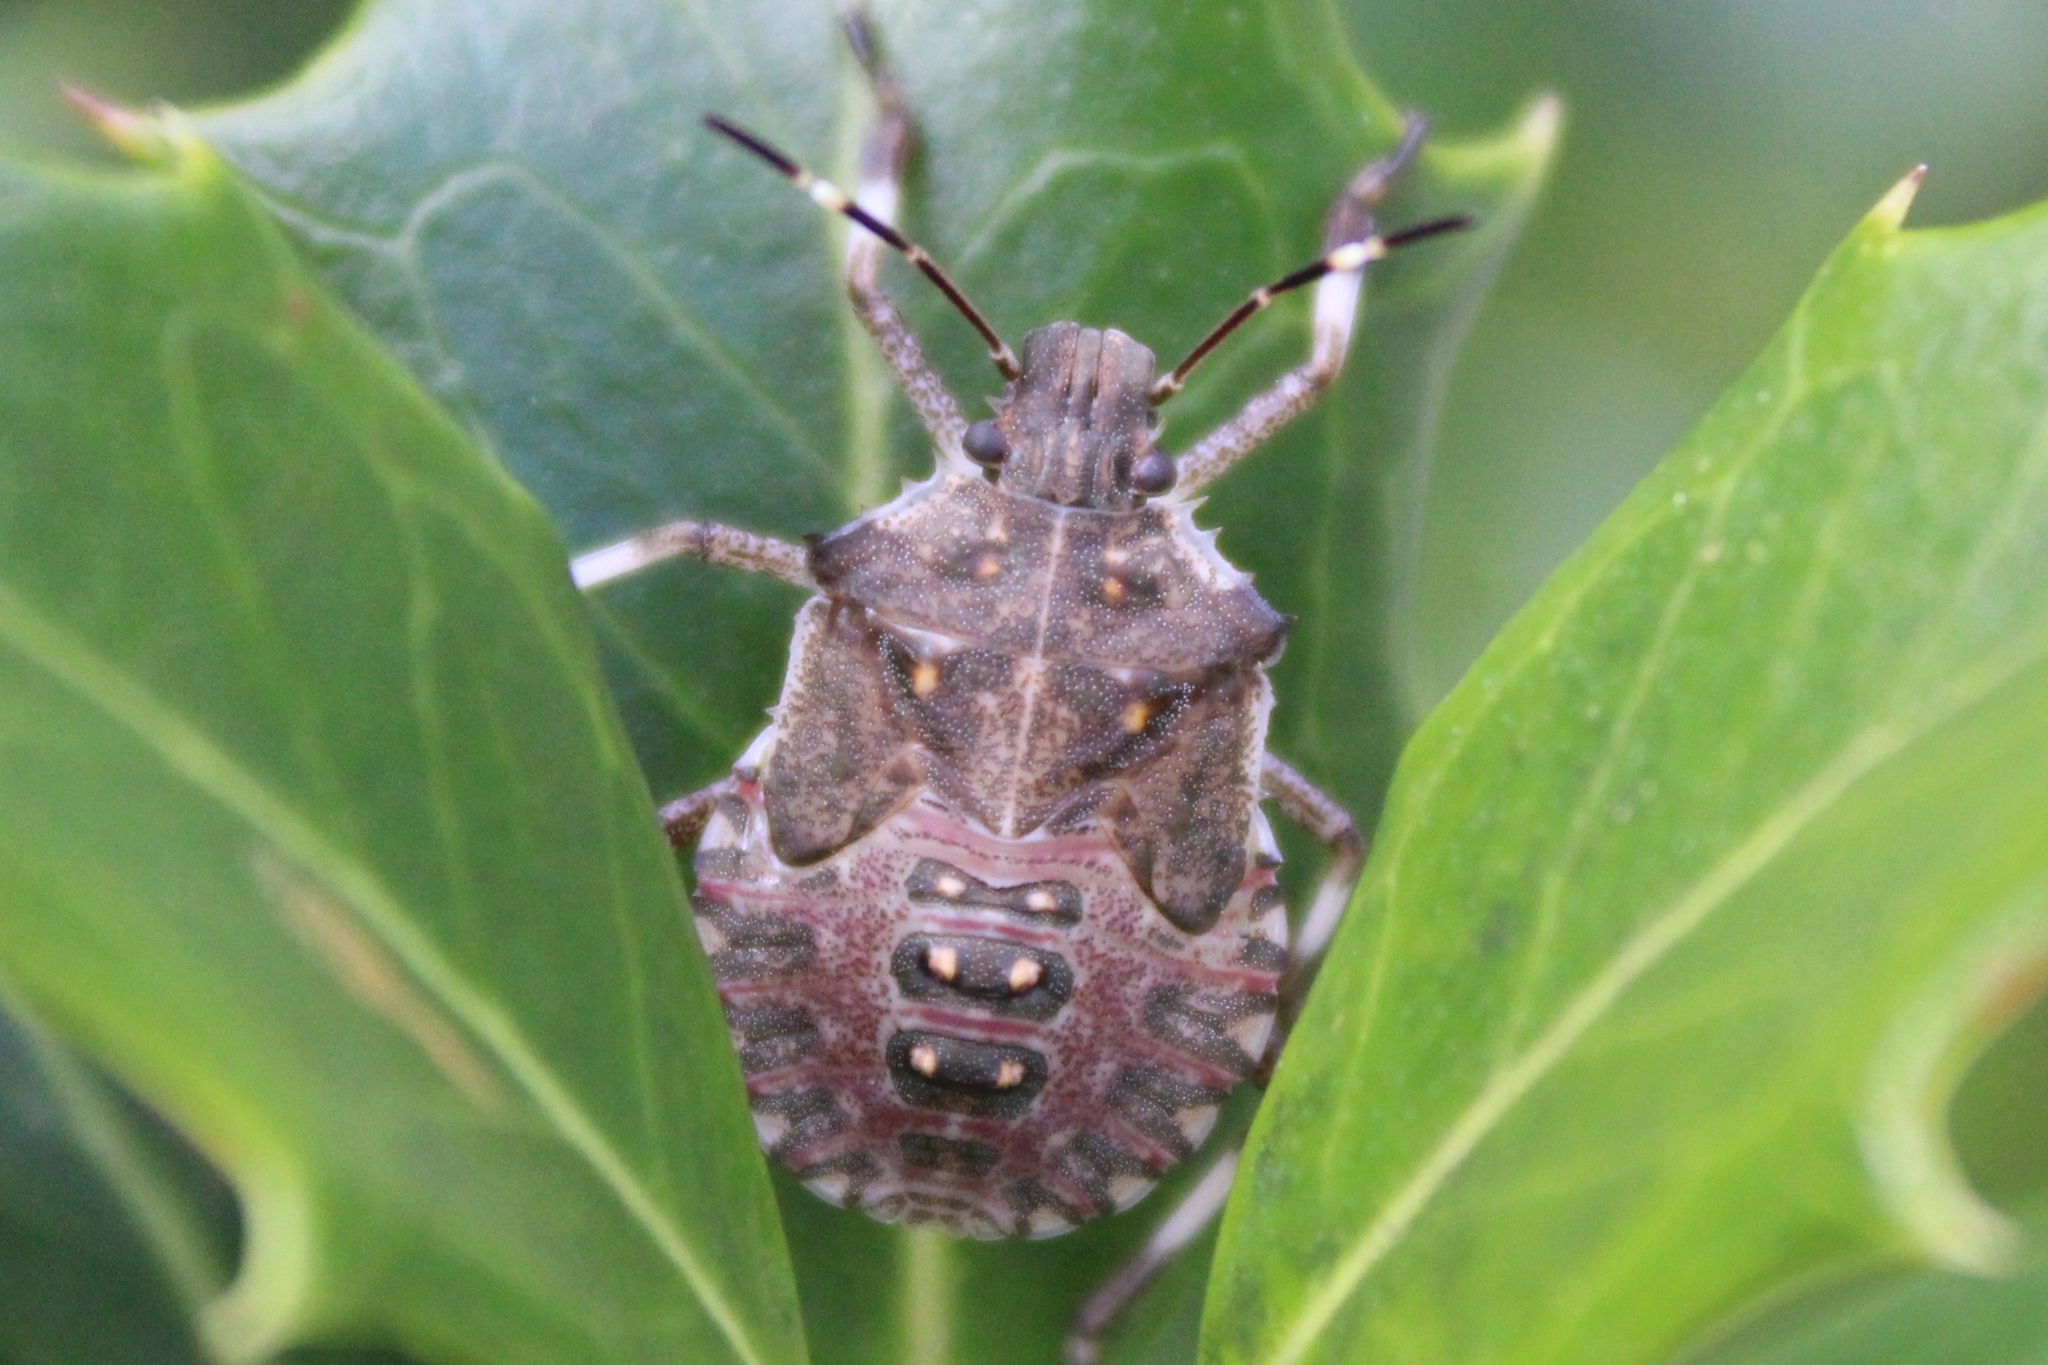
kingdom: Animalia
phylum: Arthropoda
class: Insecta
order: Hemiptera
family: Pentatomidae
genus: Halyomorpha
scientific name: Halyomorpha halys
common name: Brown marmorated stink bug
